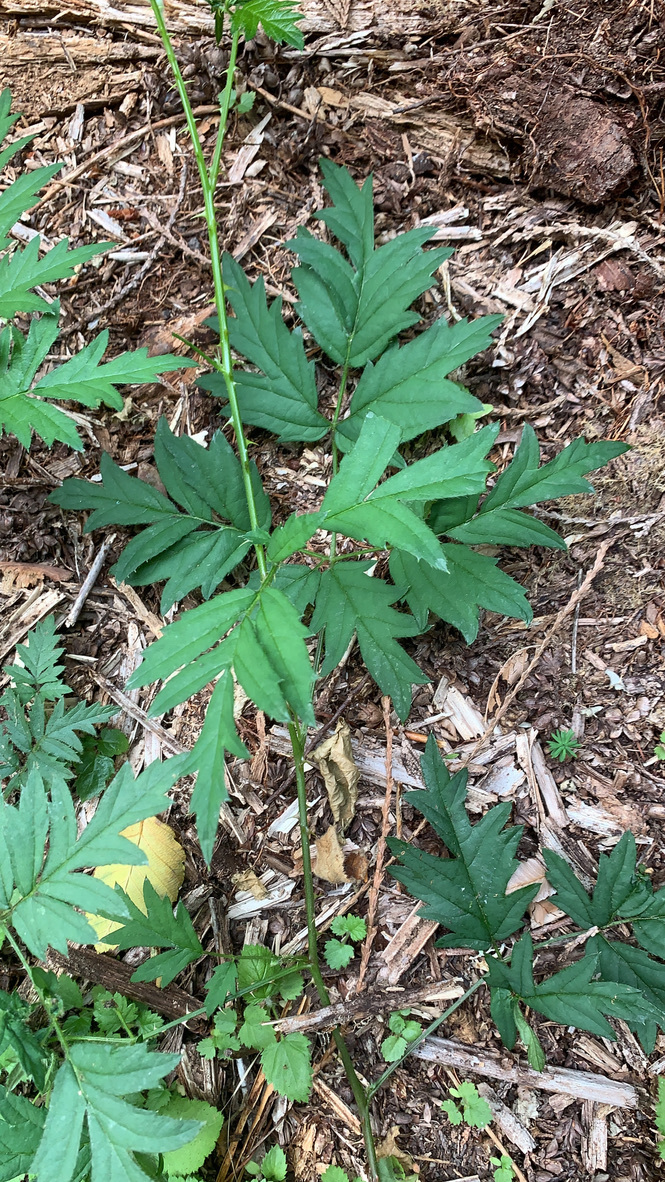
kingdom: Plantae
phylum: Tracheophyta
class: Magnoliopsida
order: Rosales
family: Rosaceae
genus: Rubus
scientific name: Rubus laciniatus
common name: Evergreen blackberry
